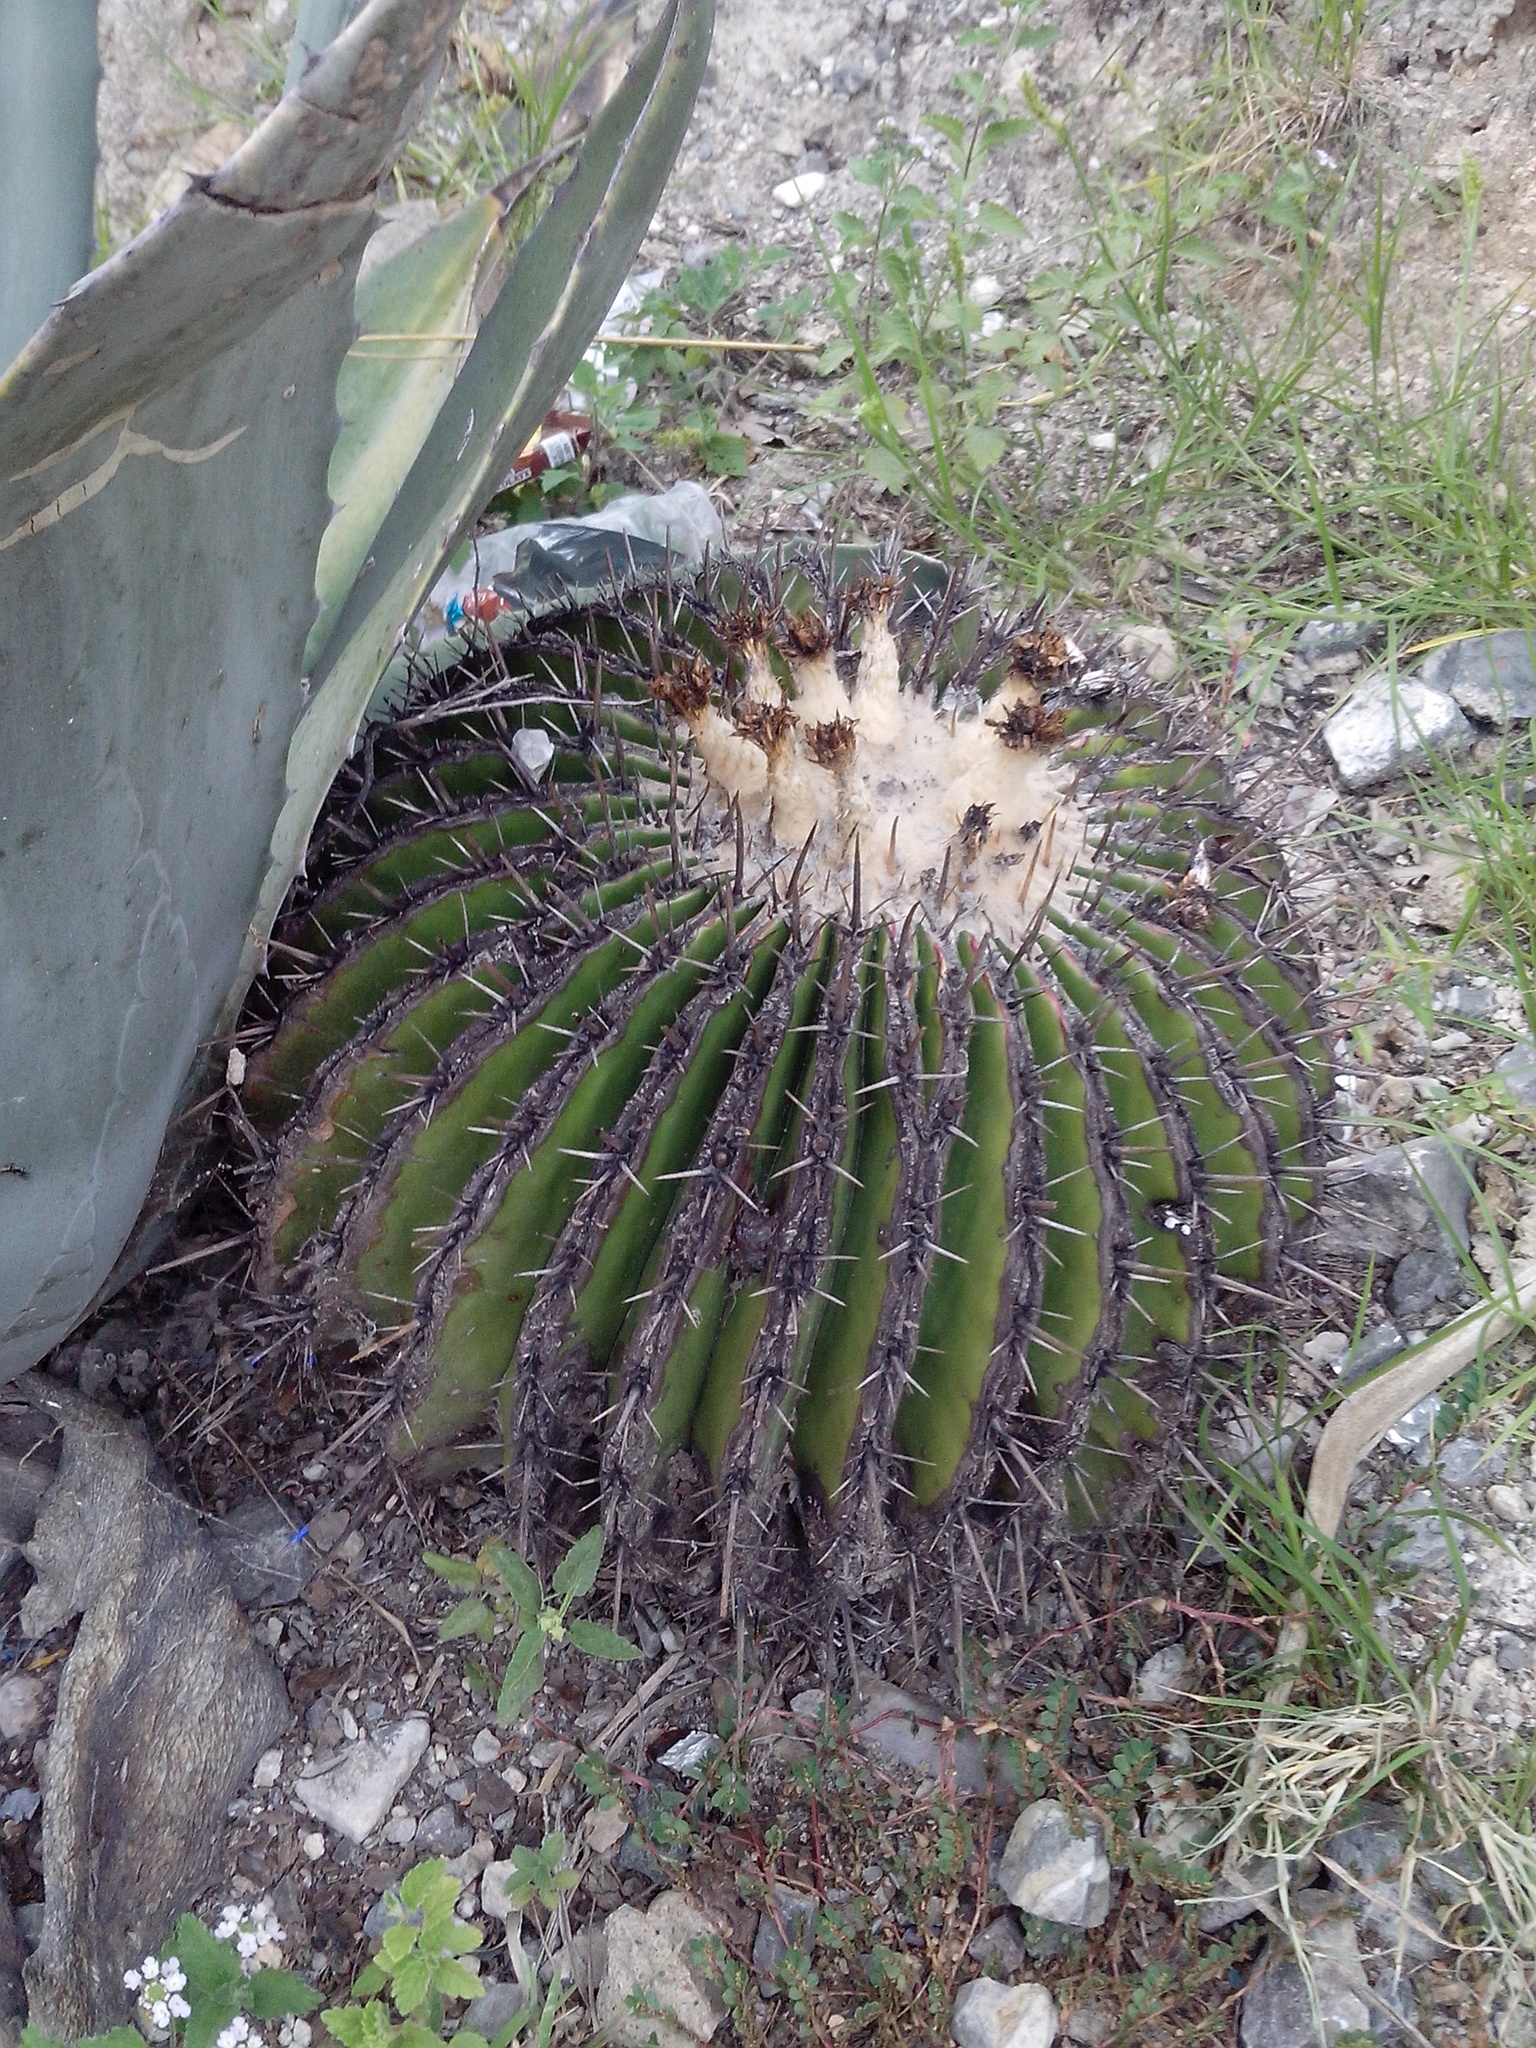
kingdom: Plantae
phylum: Tracheophyta
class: Magnoliopsida
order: Caryophyllales
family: Cactaceae
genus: Echinocactus
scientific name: Echinocactus platyacanthus
